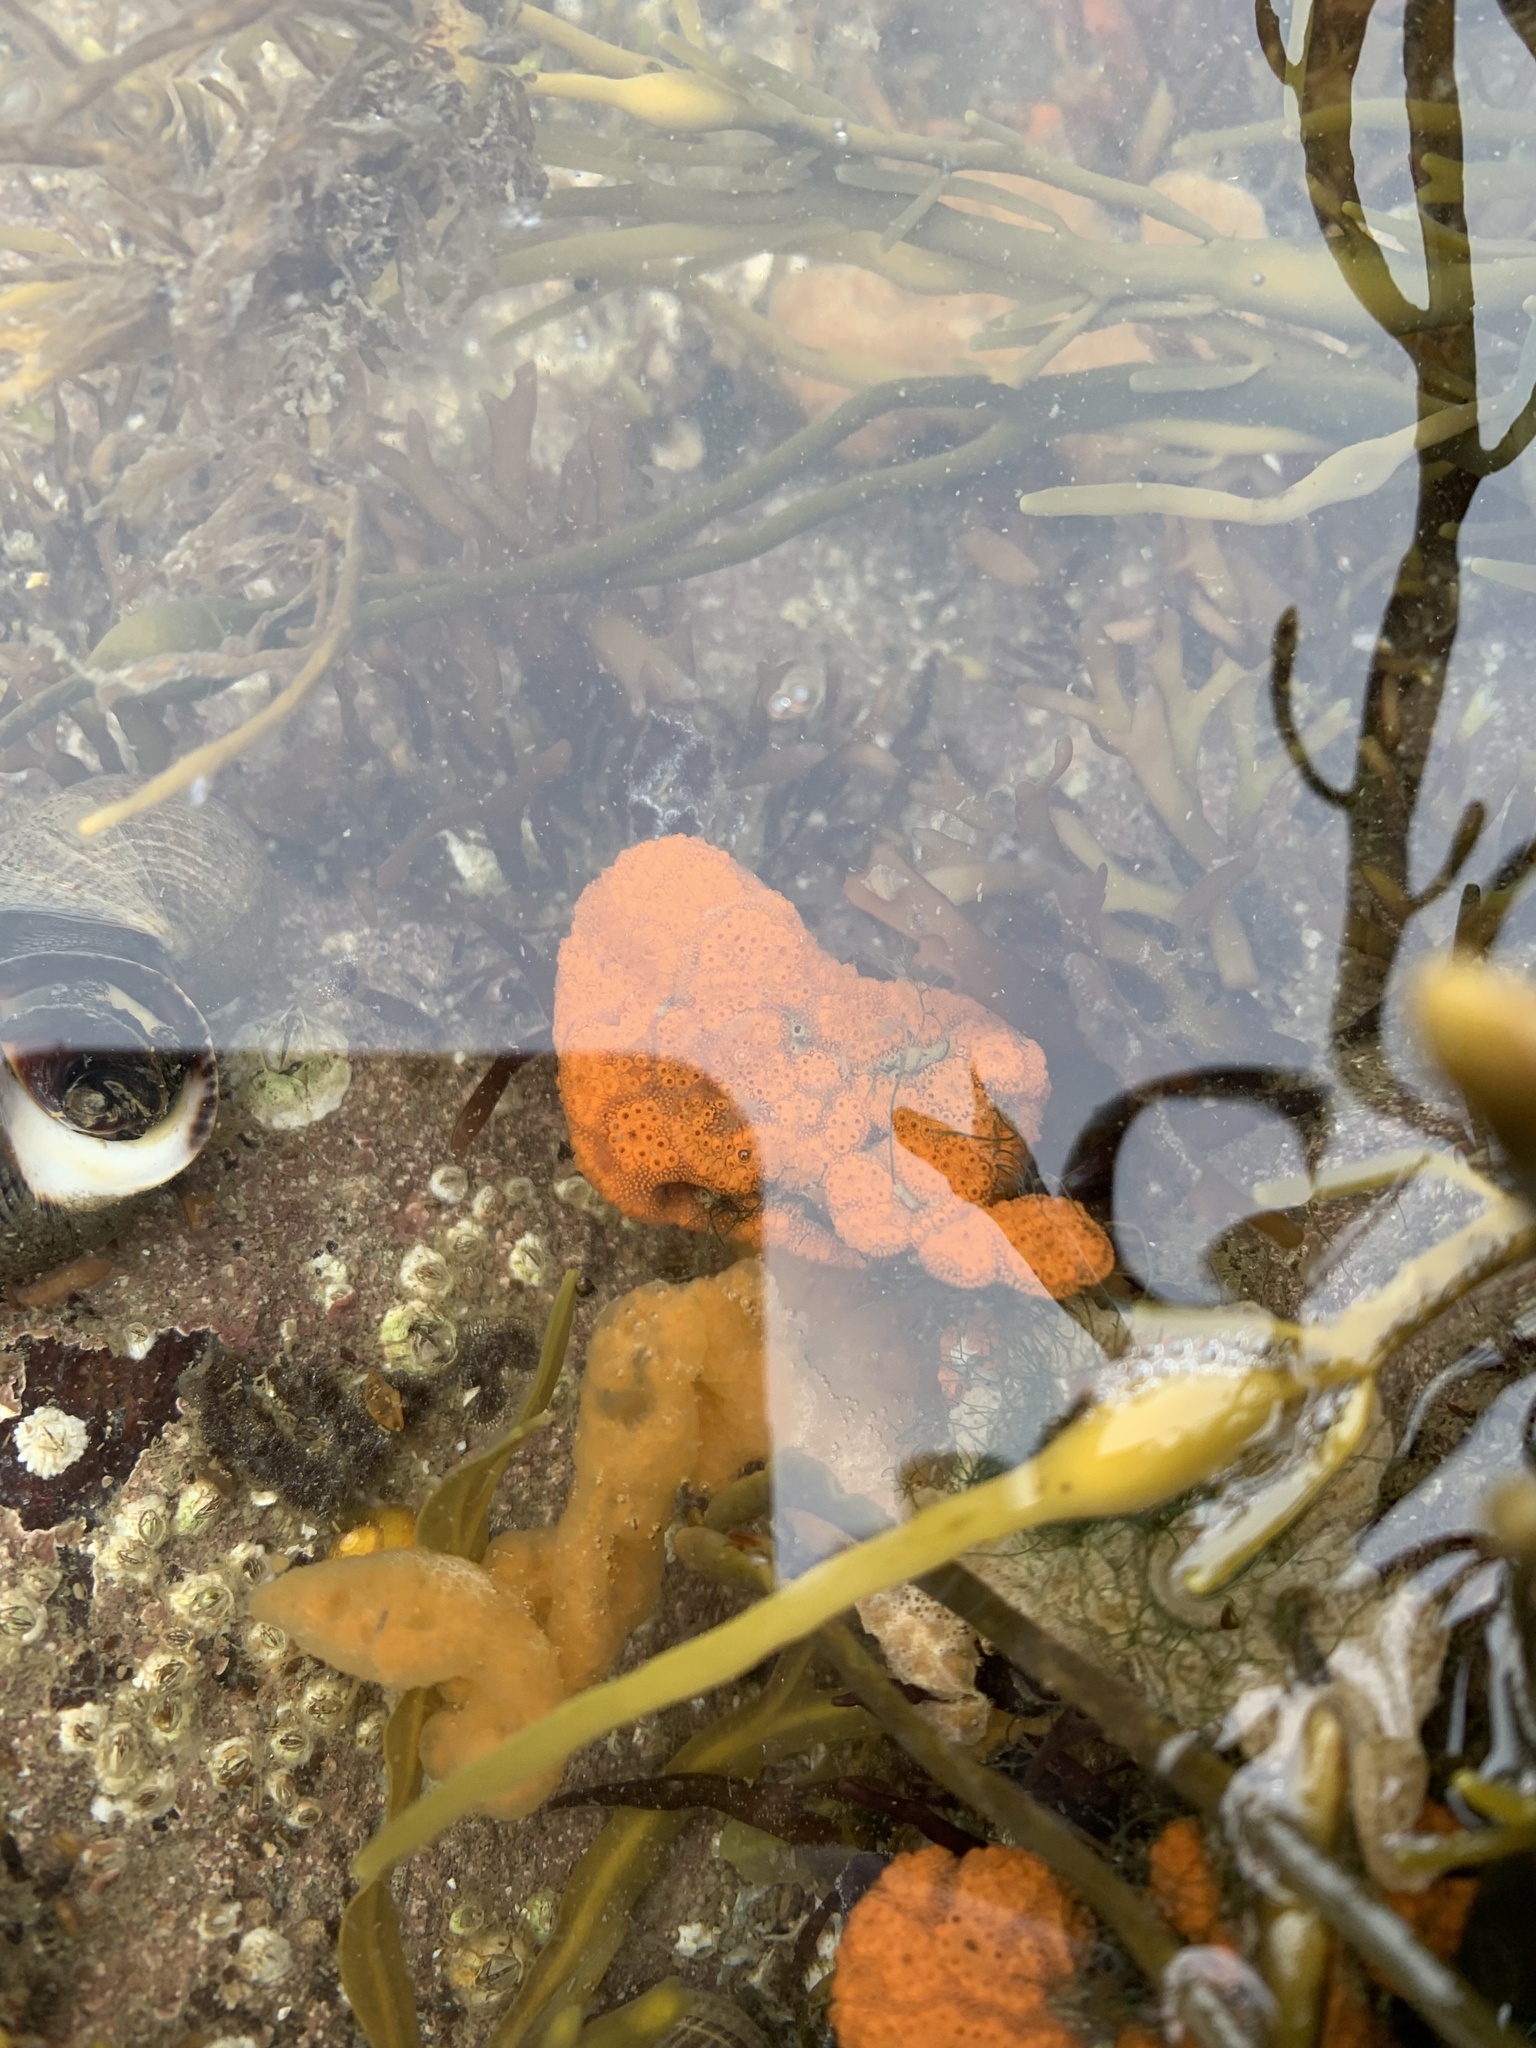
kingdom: Animalia
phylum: Chordata
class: Ascidiacea
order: Stolidobranchia
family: Styelidae
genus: Botrylloides
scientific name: Botrylloides violaceus
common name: Colonial sea squirt
